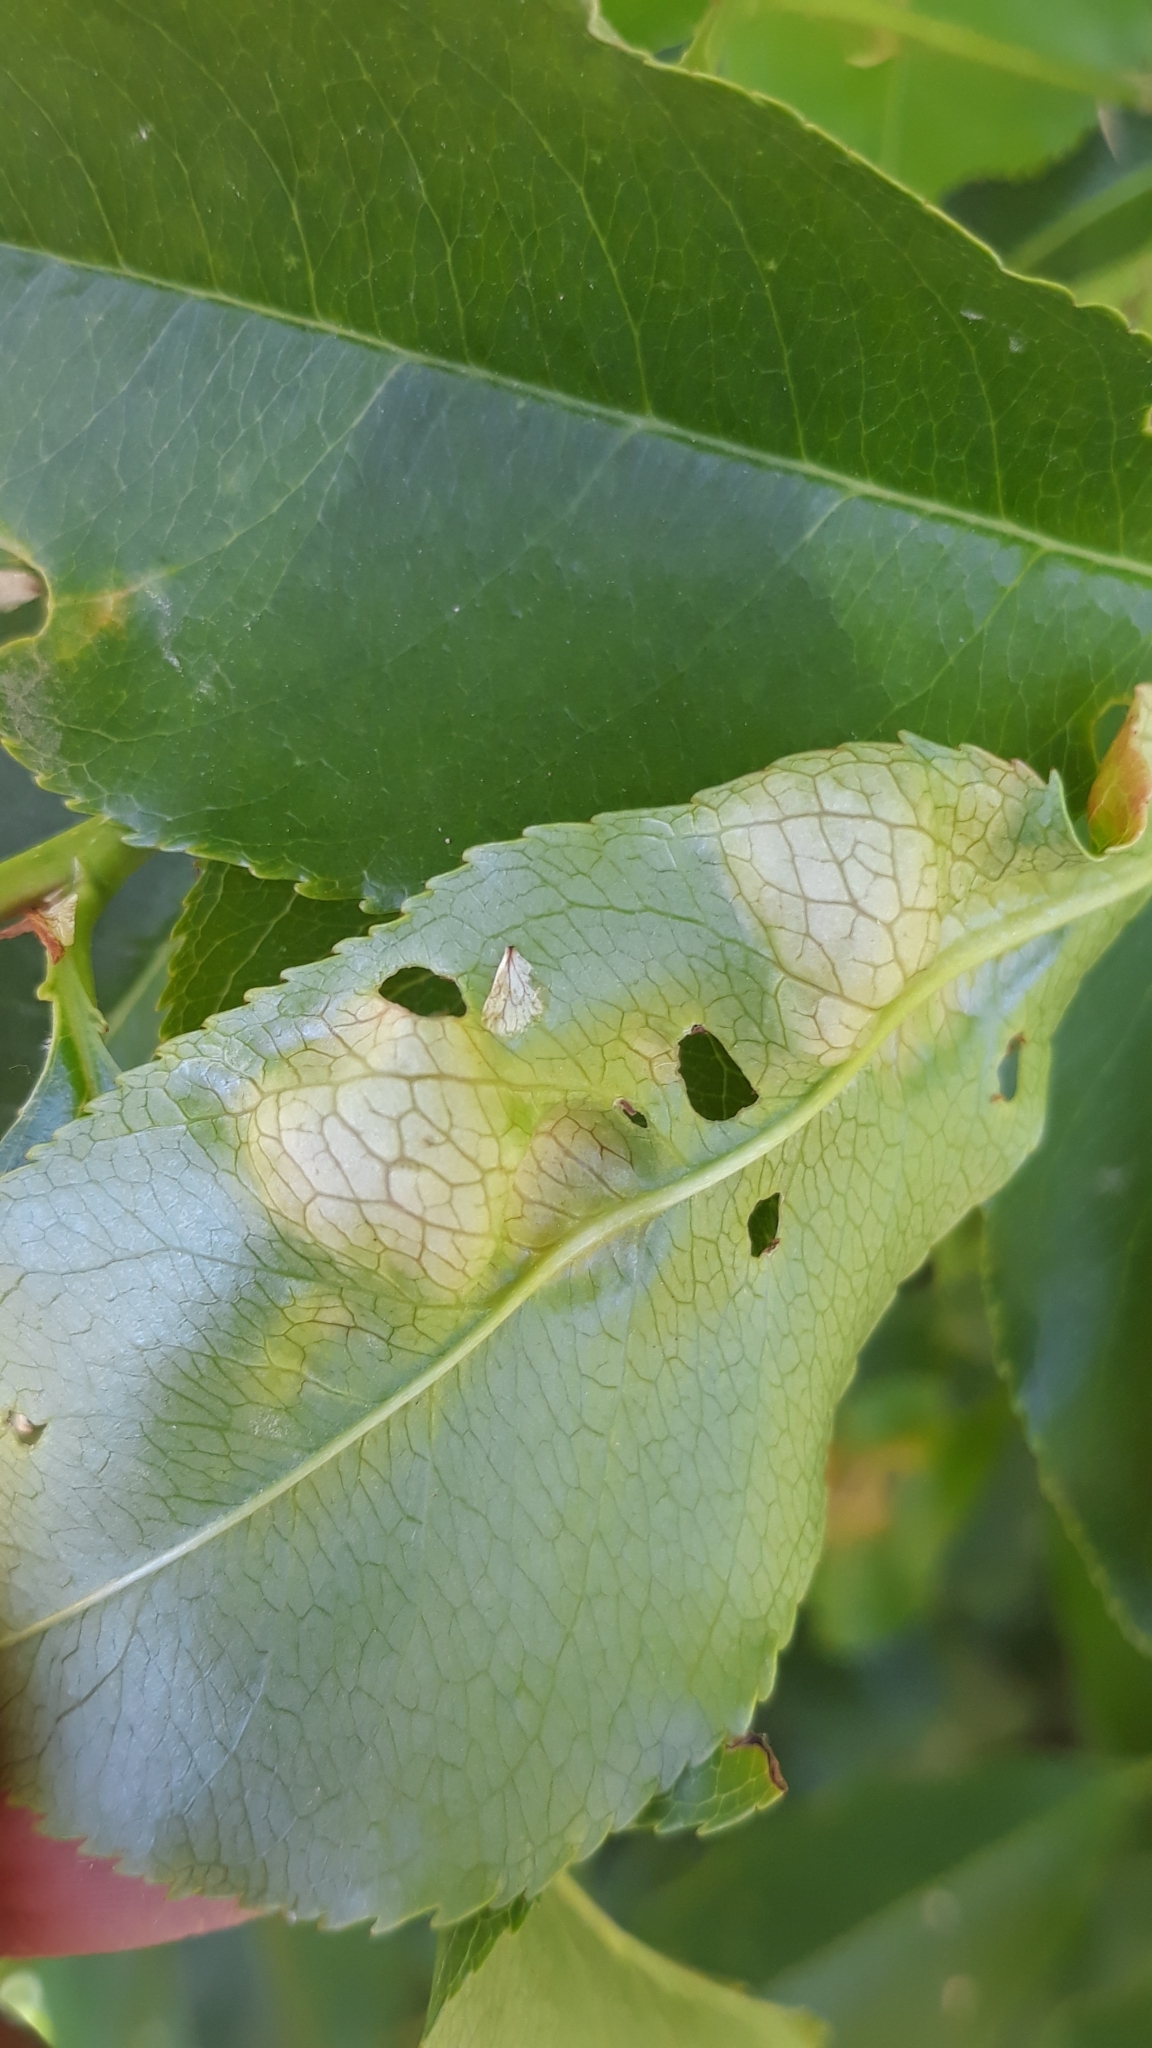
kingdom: Fungi
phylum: Ascomycota
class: Taphrinomycetes
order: Taphrinales
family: Taphrinaceae
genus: Taphrina
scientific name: Taphrina farlowii
